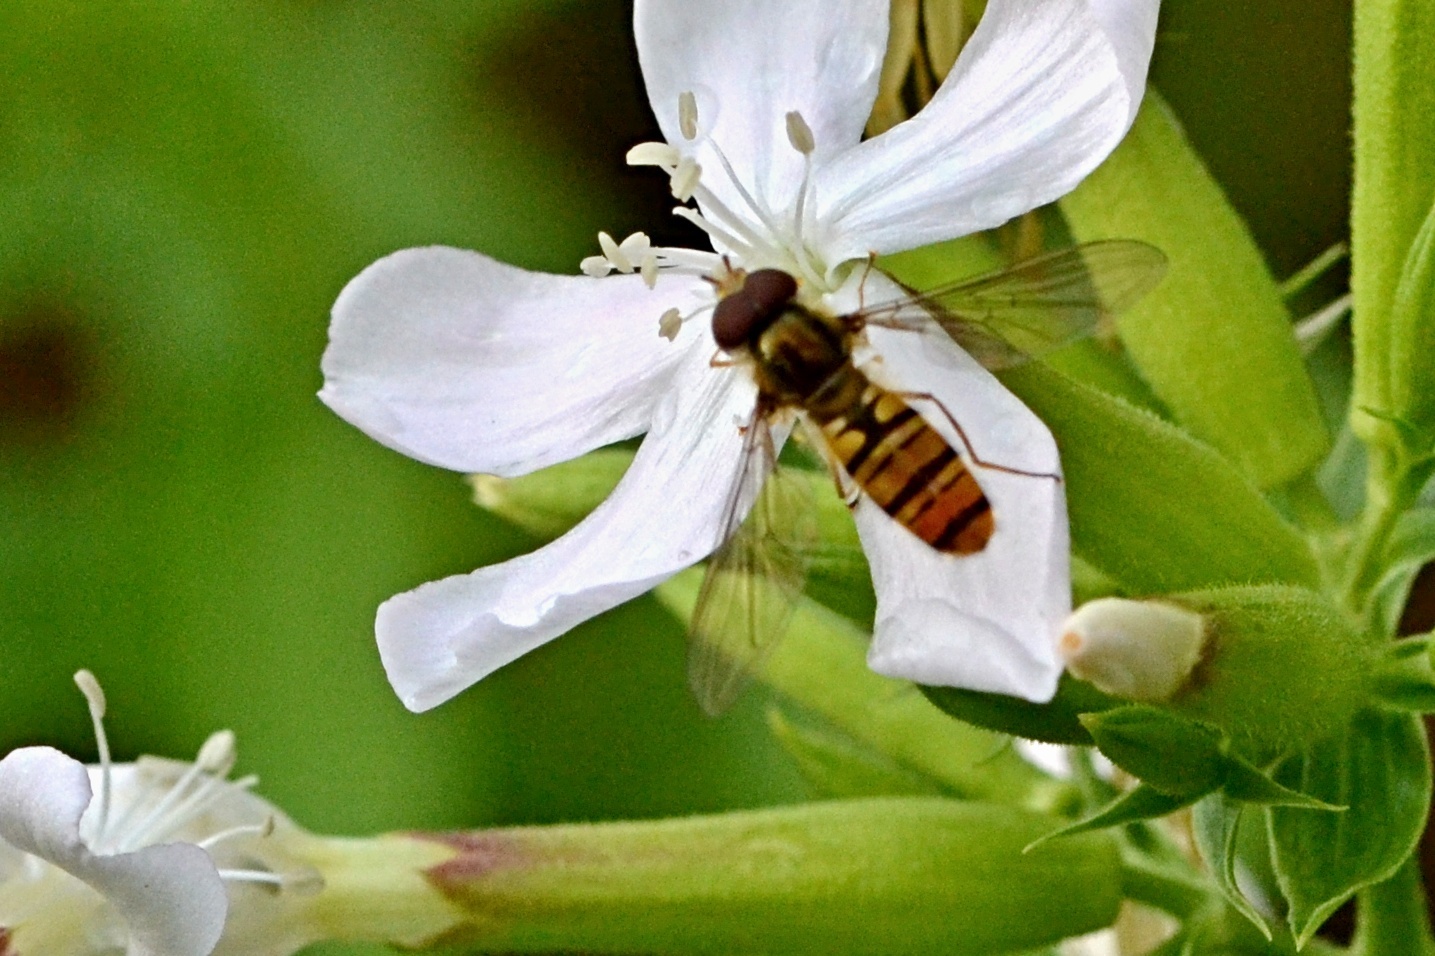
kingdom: Animalia
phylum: Arthropoda
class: Insecta
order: Diptera
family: Syrphidae
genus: Episyrphus
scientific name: Episyrphus balteatus
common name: Marmalade hoverfly
